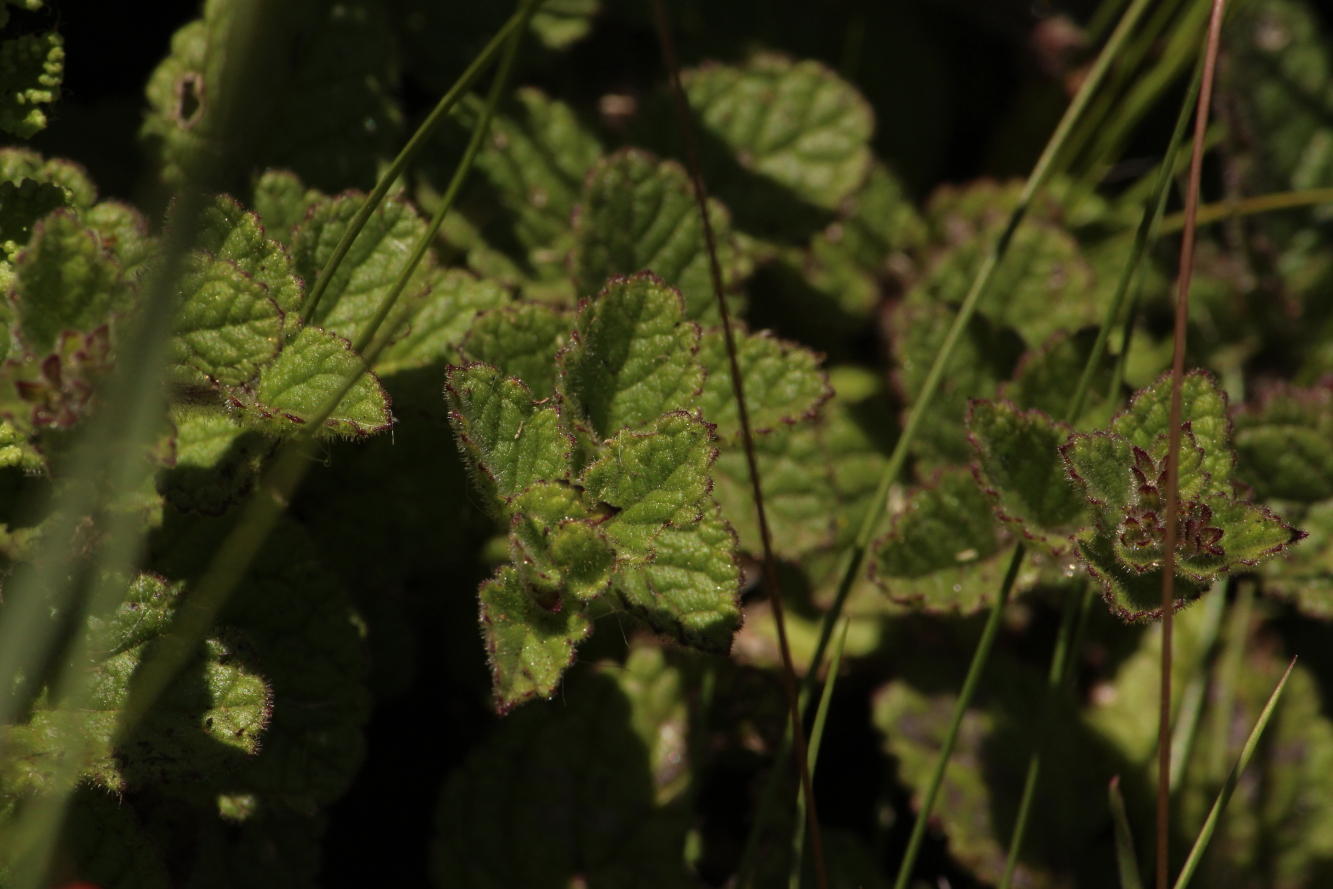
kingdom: Plantae
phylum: Tracheophyta
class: Magnoliopsida
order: Lamiales
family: Scrophulariaceae
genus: Jamesbrittenia
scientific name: Jamesbrittenia breviflora
